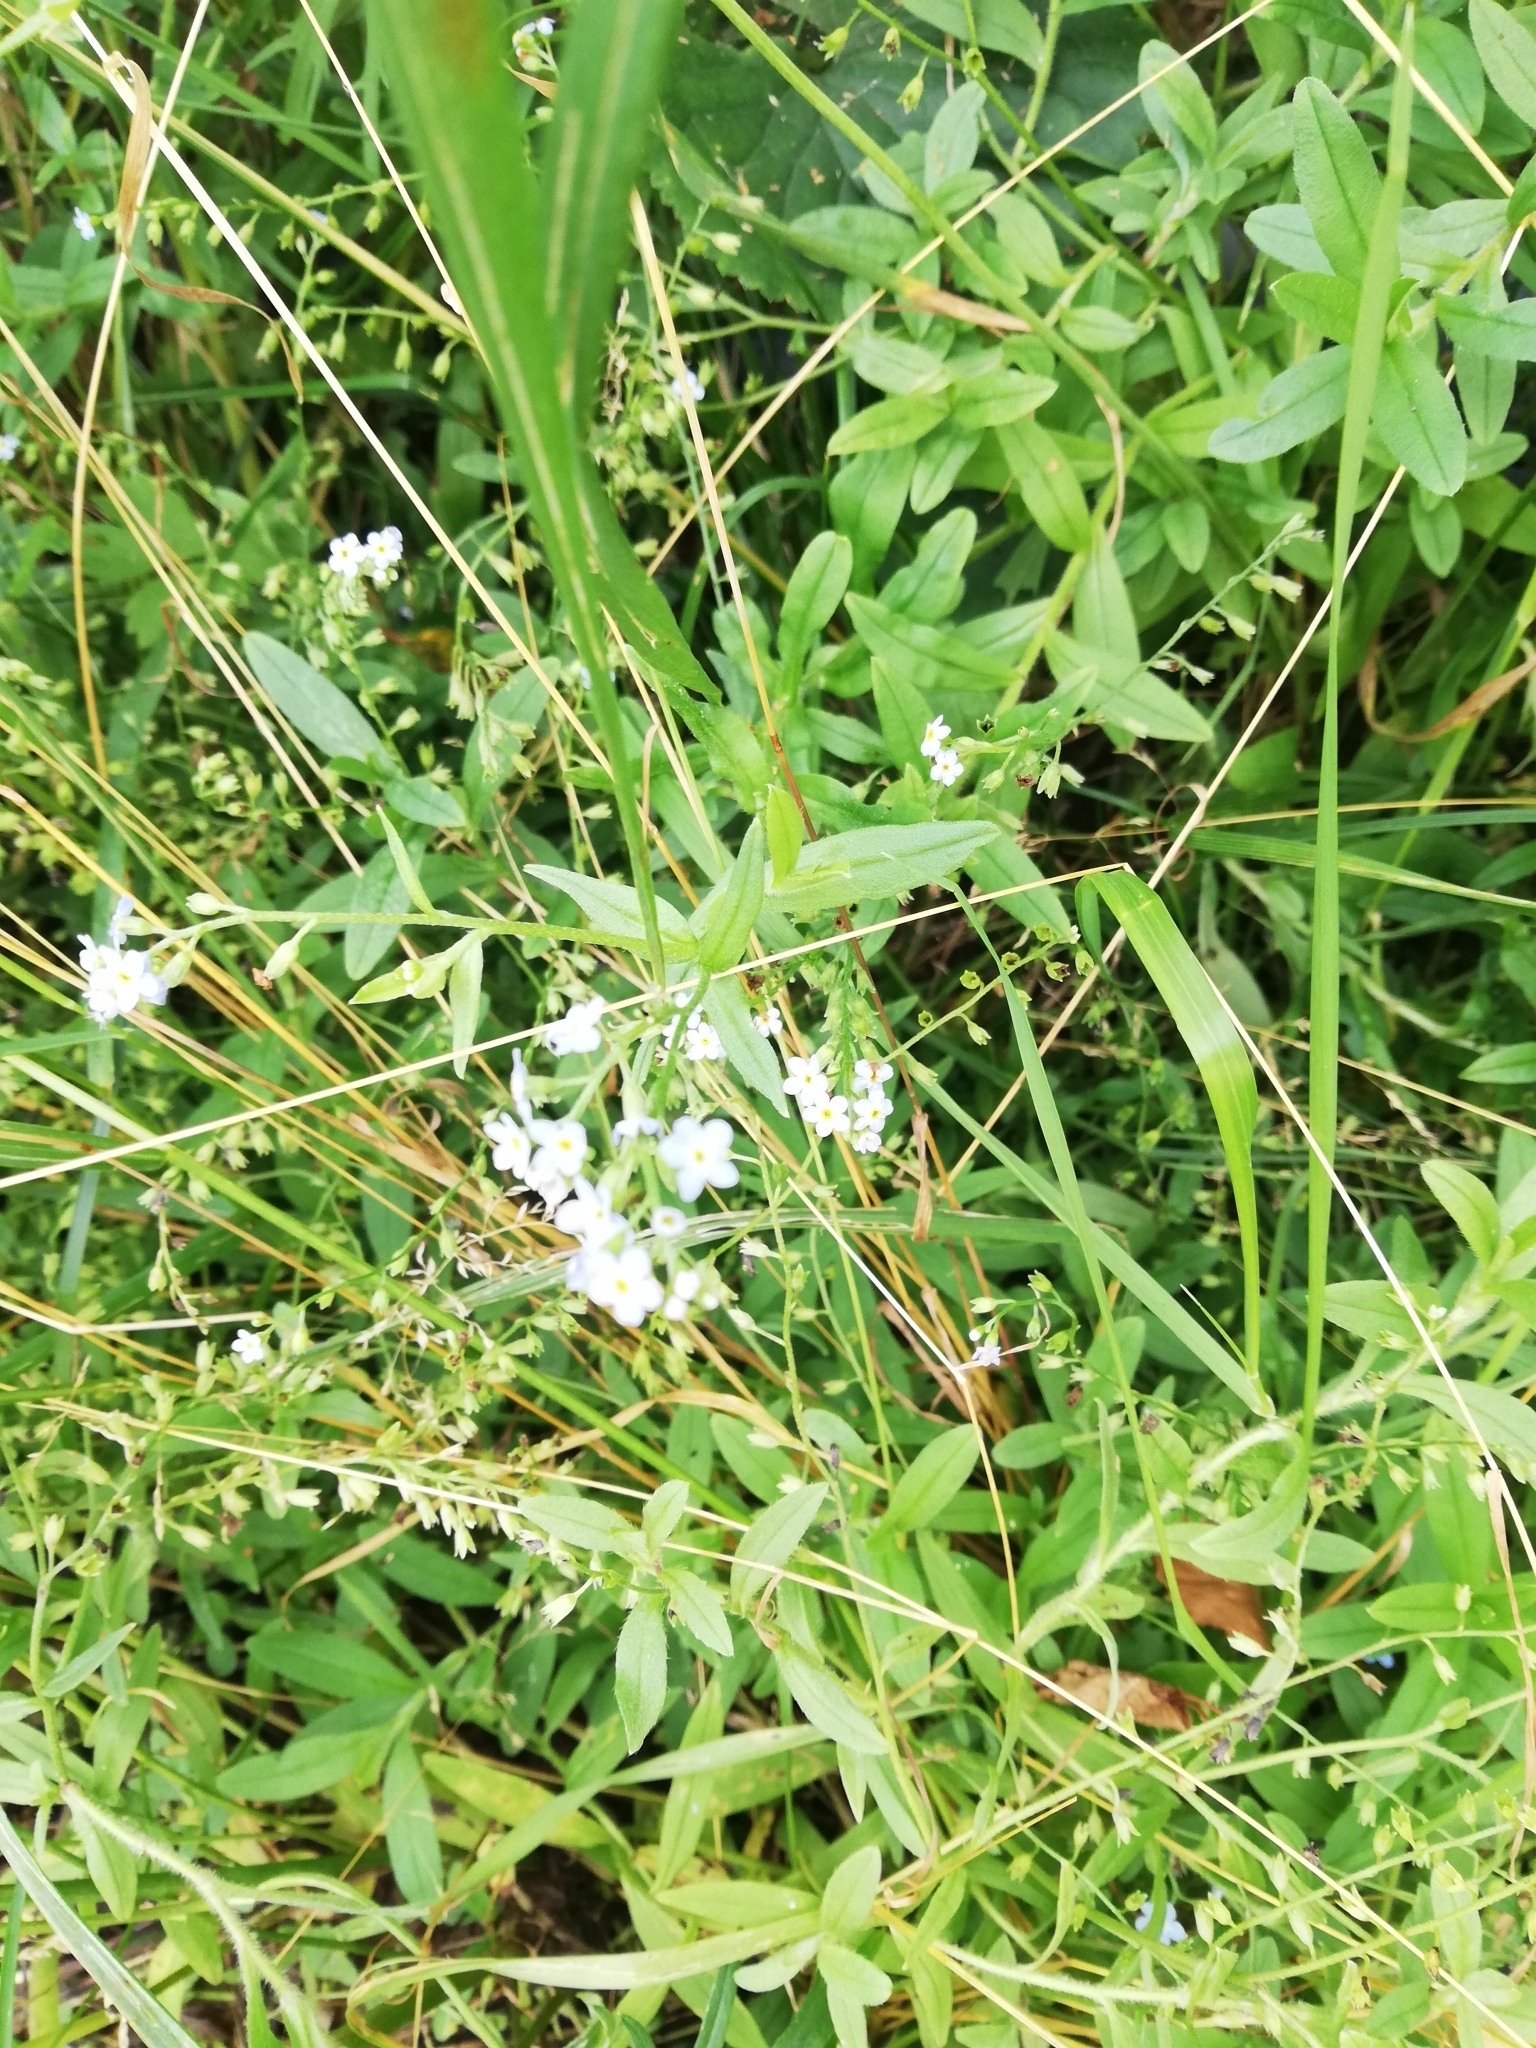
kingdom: Plantae
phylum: Tracheophyta
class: Magnoliopsida
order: Boraginales
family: Boraginaceae
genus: Myosotis
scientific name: Myosotis scorpioides
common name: Water forget-me-not
